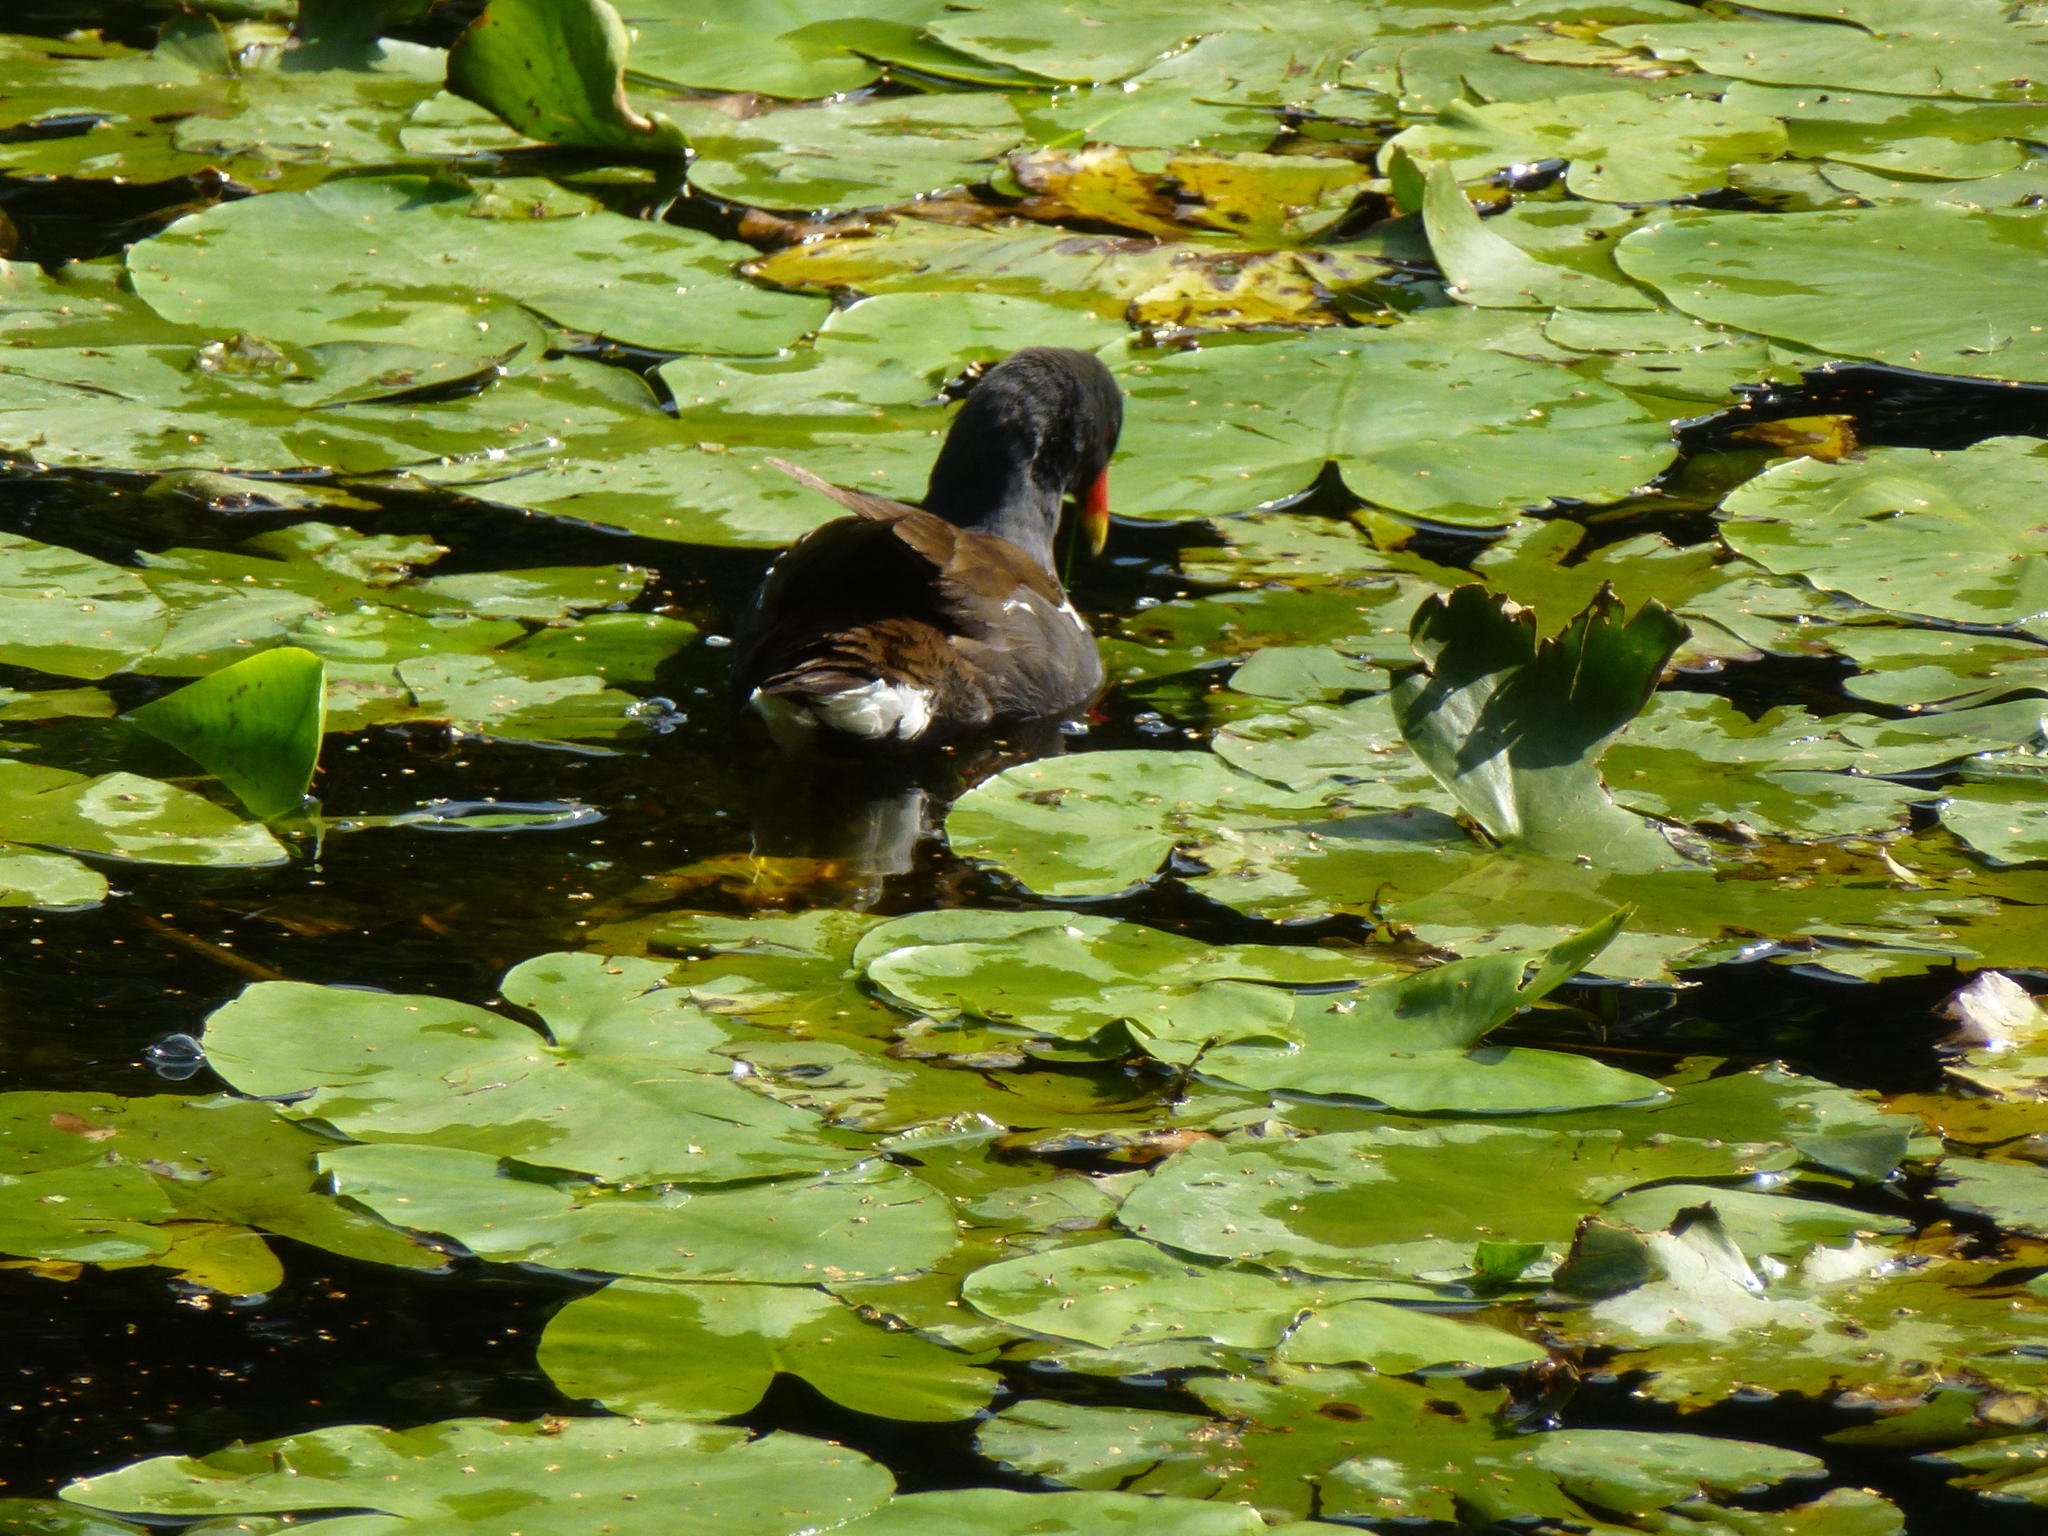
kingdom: Animalia
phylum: Chordata
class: Aves
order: Gruiformes
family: Rallidae
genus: Gallinula
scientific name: Gallinula chloropus
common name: Common moorhen
